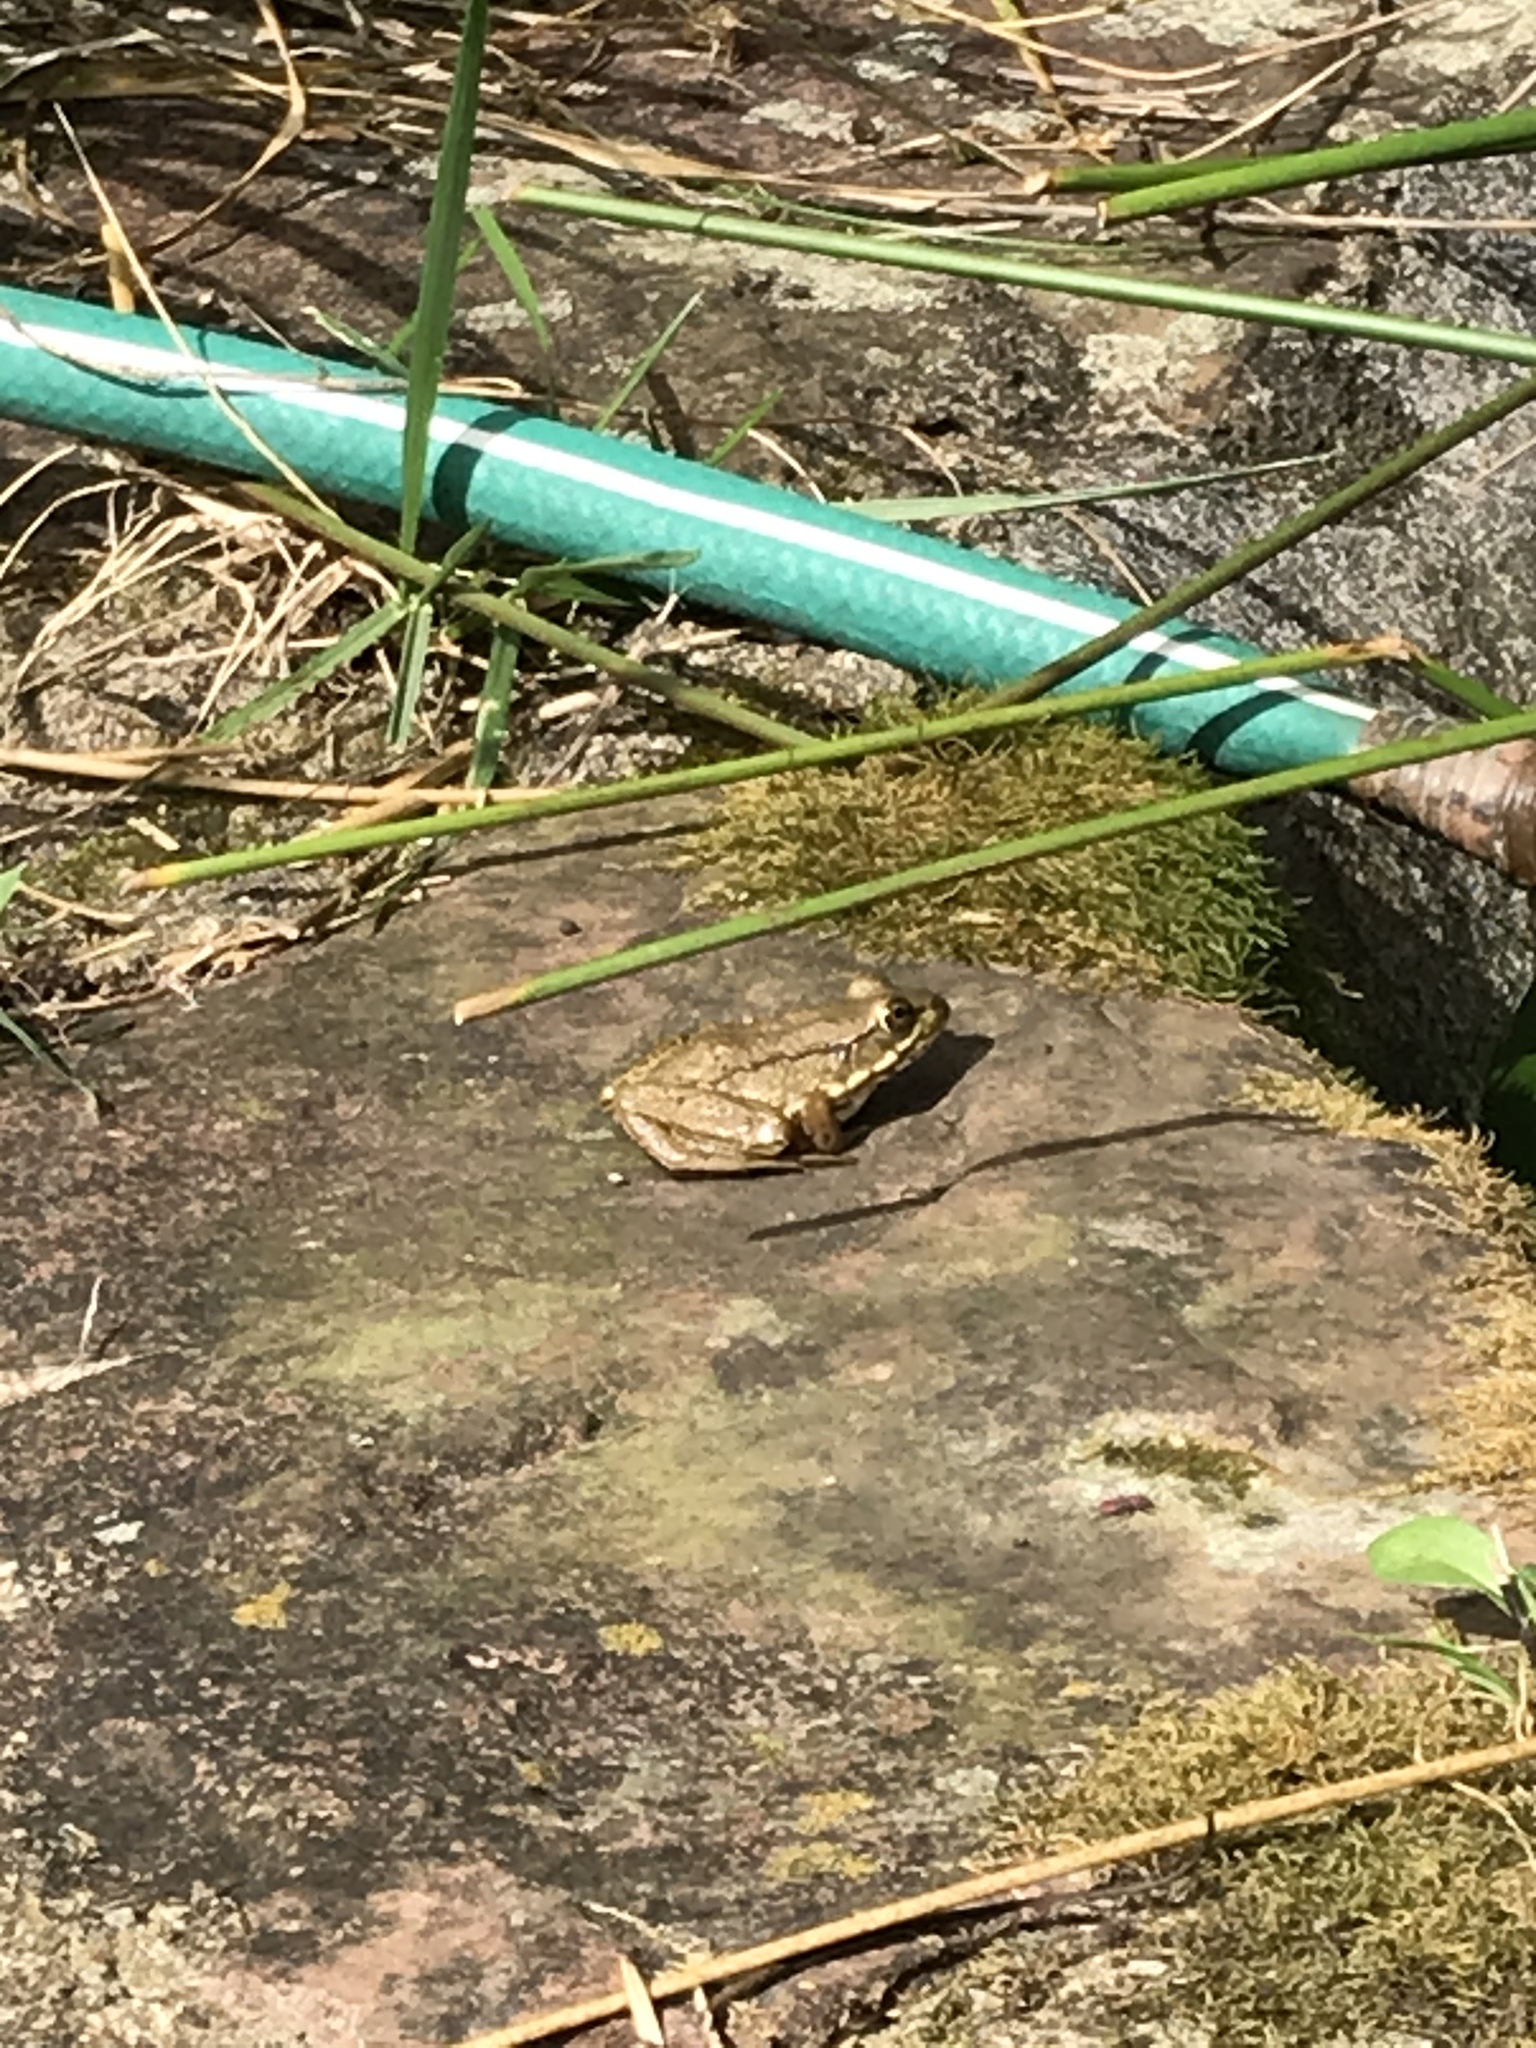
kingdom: Animalia
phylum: Chordata
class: Amphibia
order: Anura
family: Ranidae
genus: Lithobates
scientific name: Lithobates clamitans
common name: Green frog
